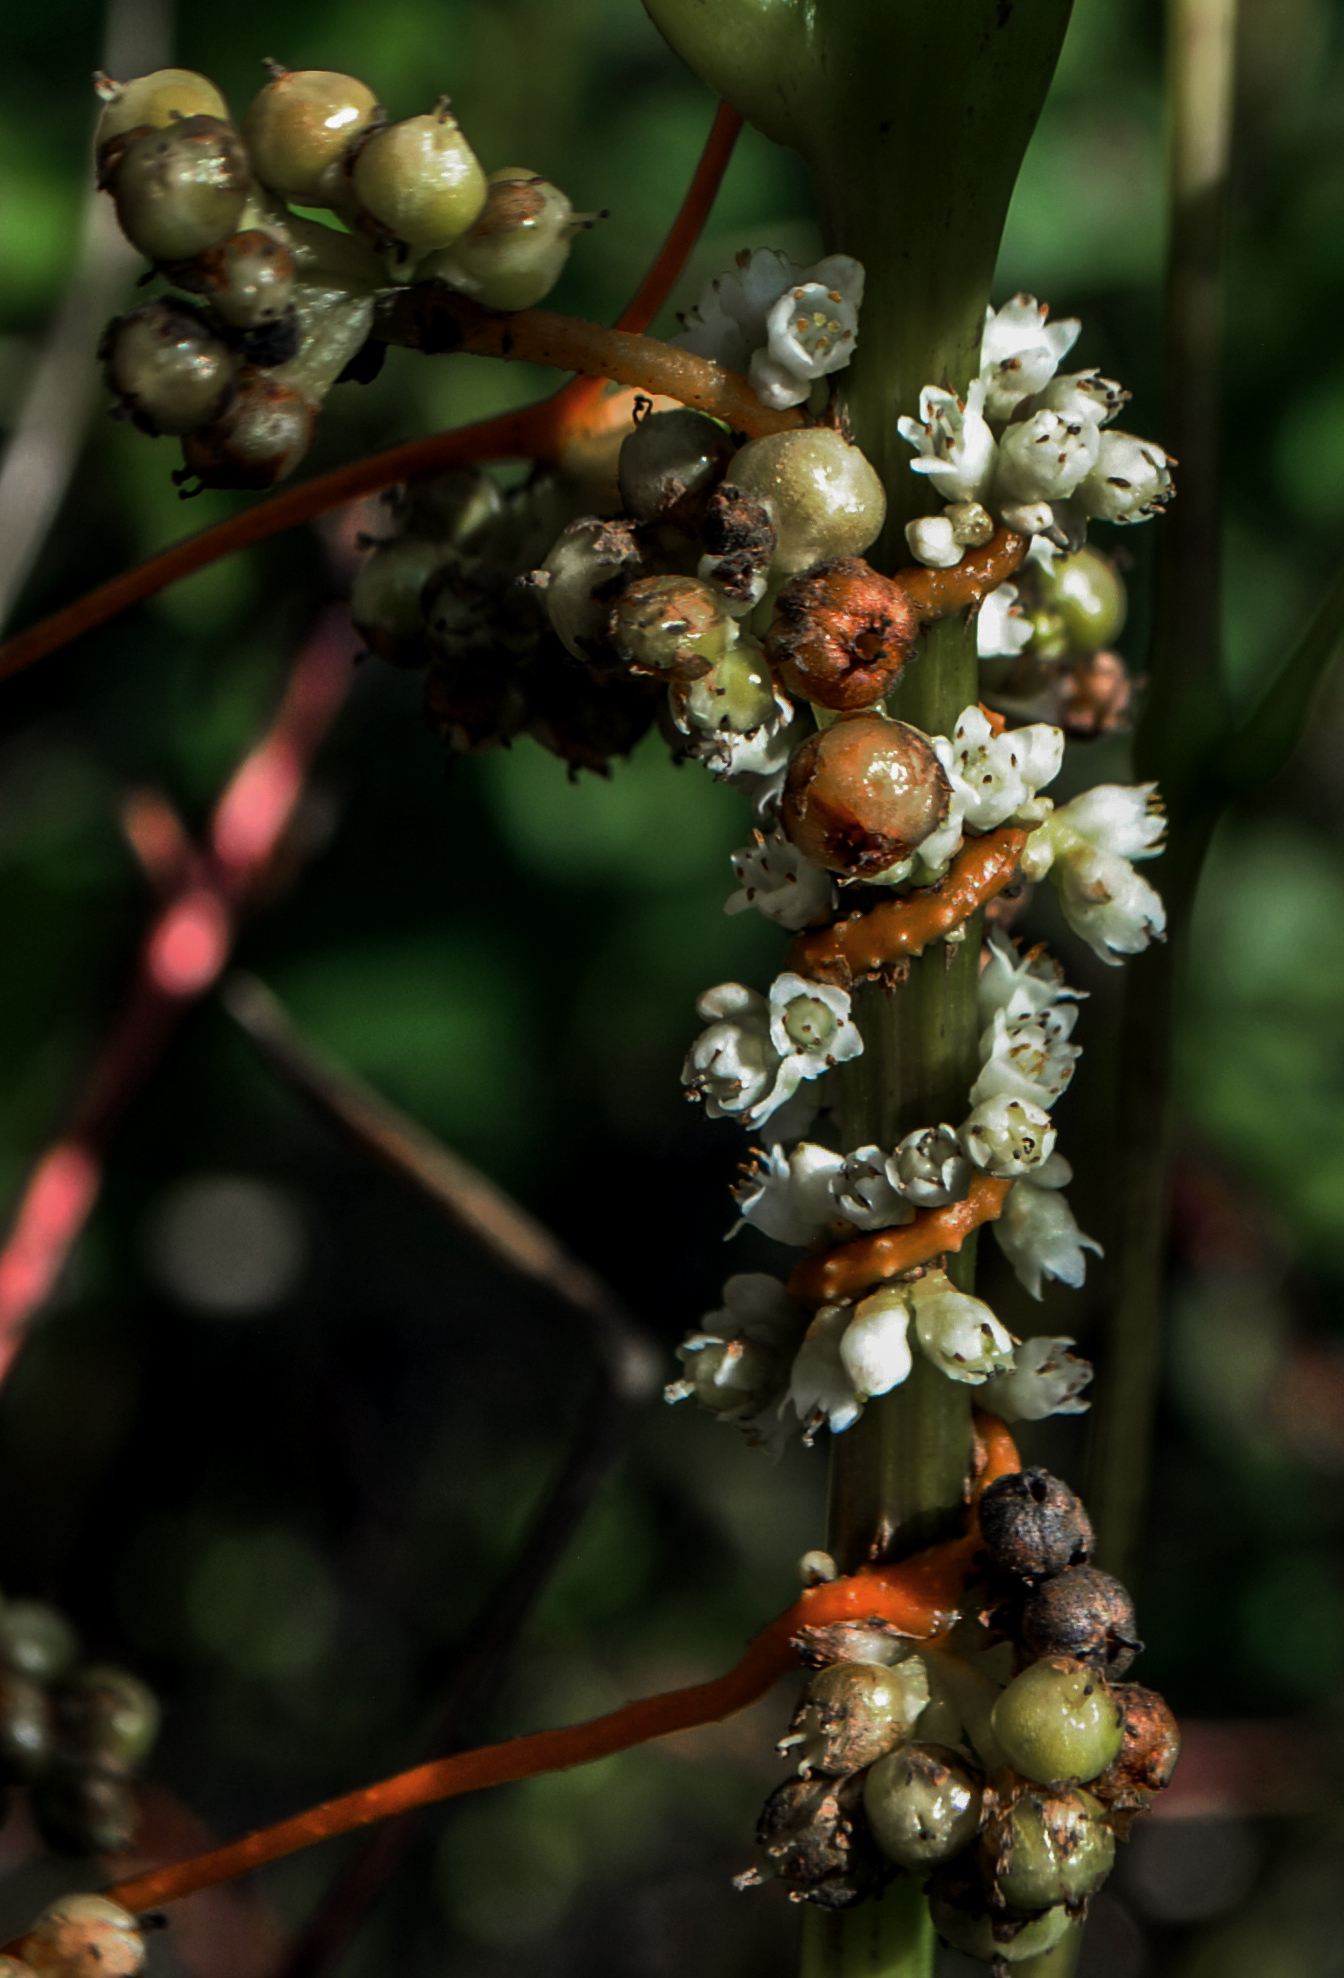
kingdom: Plantae
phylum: Tracheophyta
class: Magnoliopsida
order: Solanales
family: Convolvulaceae
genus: Cuscuta
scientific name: Cuscuta gronovii
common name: Common dodder
